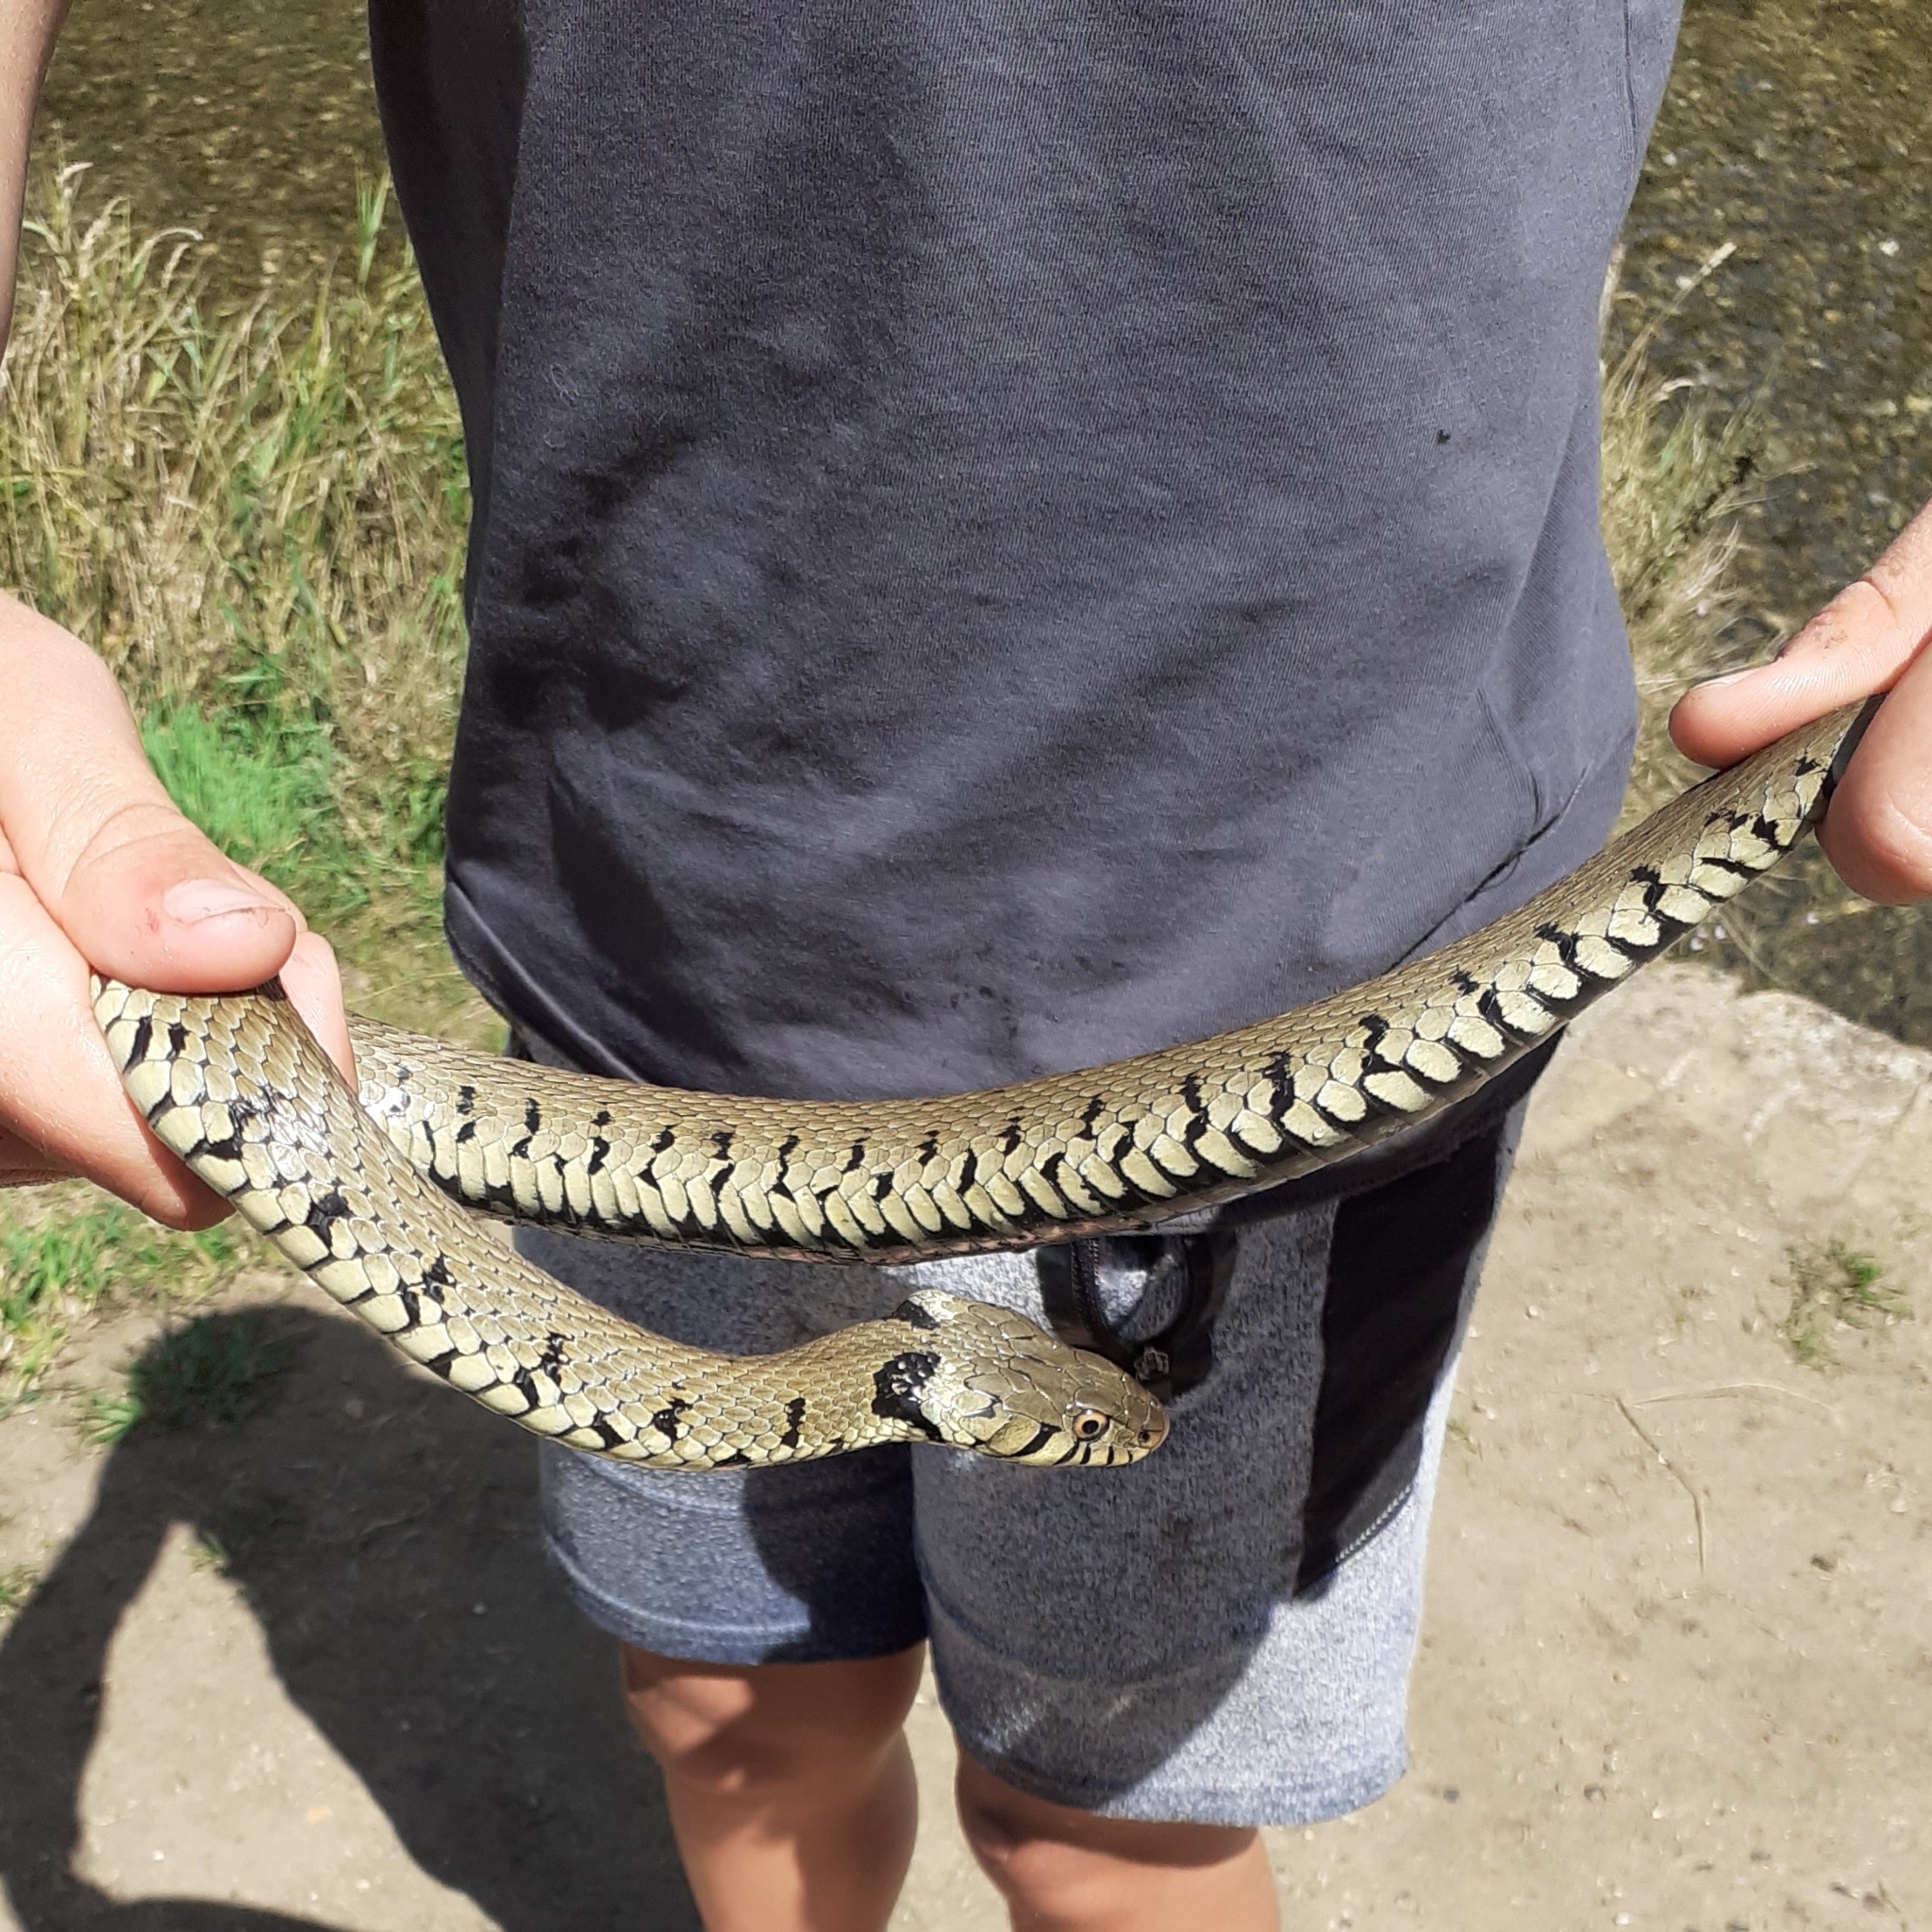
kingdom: Animalia
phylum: Chordata
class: Squamata
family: Colubridae
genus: Natrix
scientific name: Natrix helvetica
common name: Banded grass snake
